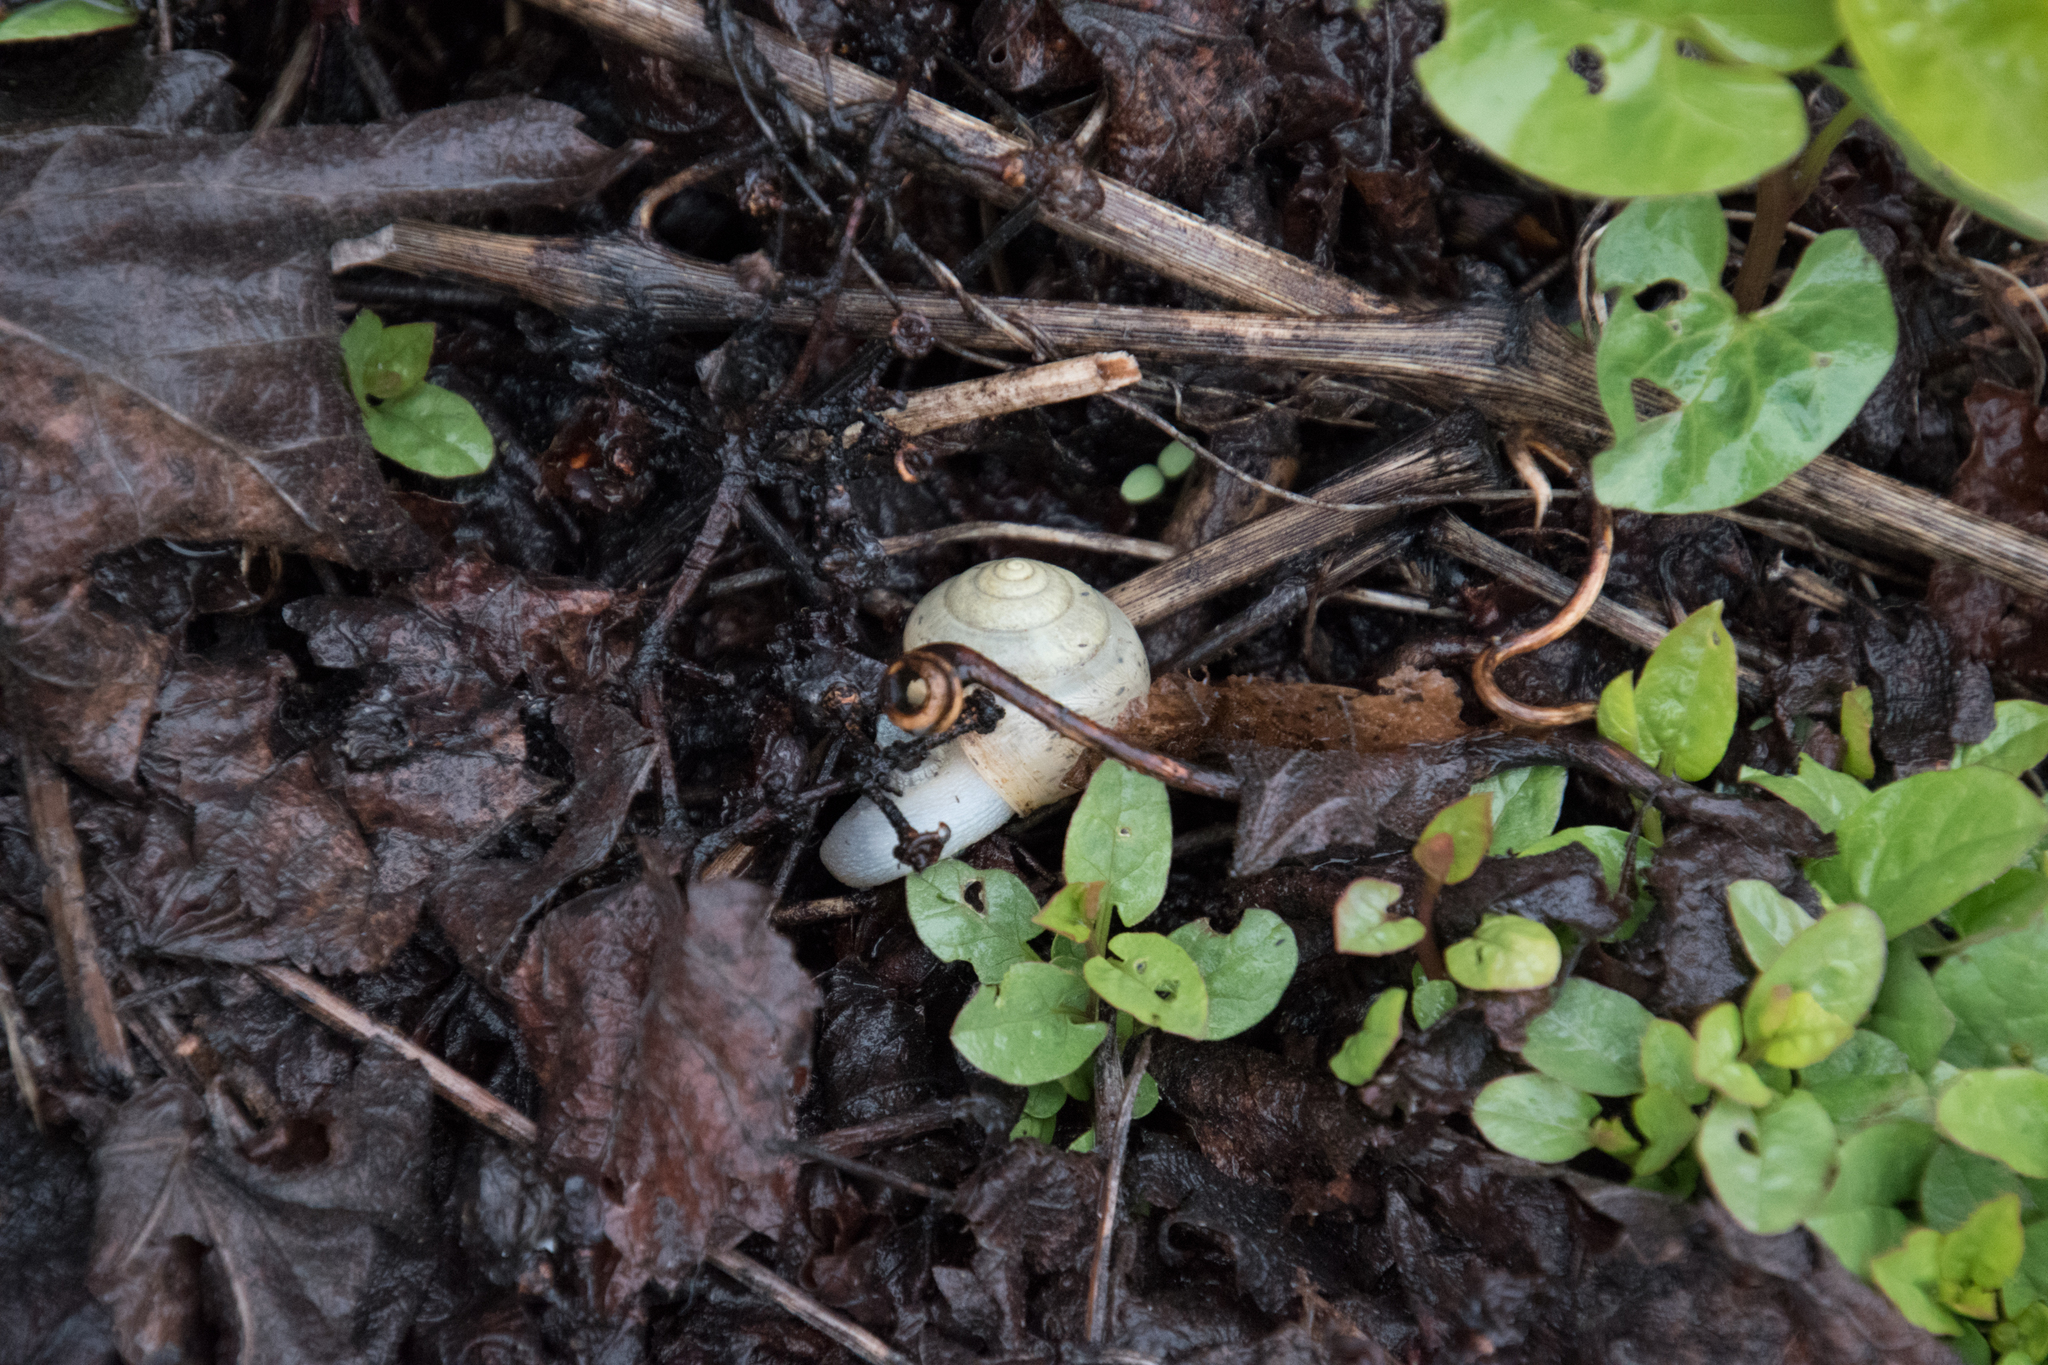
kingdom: Animalia
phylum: Mollusca
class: Gastropoda
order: Stylommatophora
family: Camaenidae
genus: Fruticicola
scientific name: Fruticicola fruticum
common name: Bush snail
